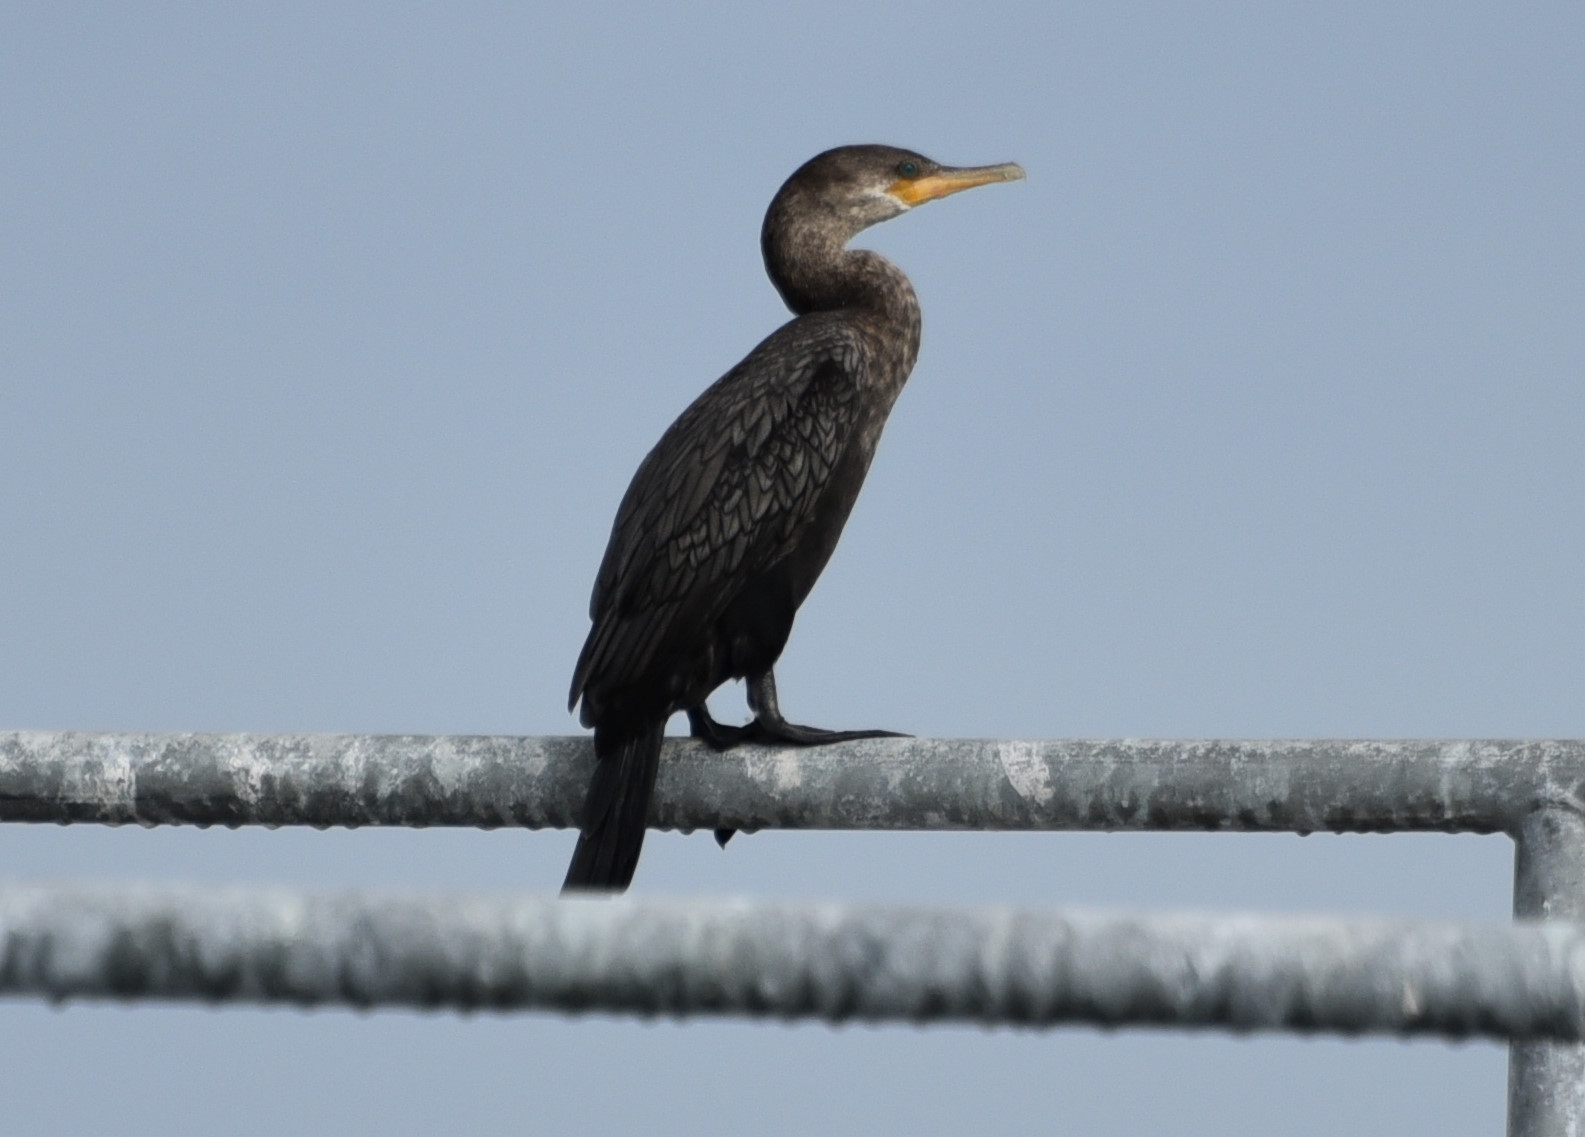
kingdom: Animalia
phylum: Chordata
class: Aves
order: Suliformes
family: Phalacrocoracidae
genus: Phalacrocorax
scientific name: Phalacrocorax brasilianus
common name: Neotropic cormorant
